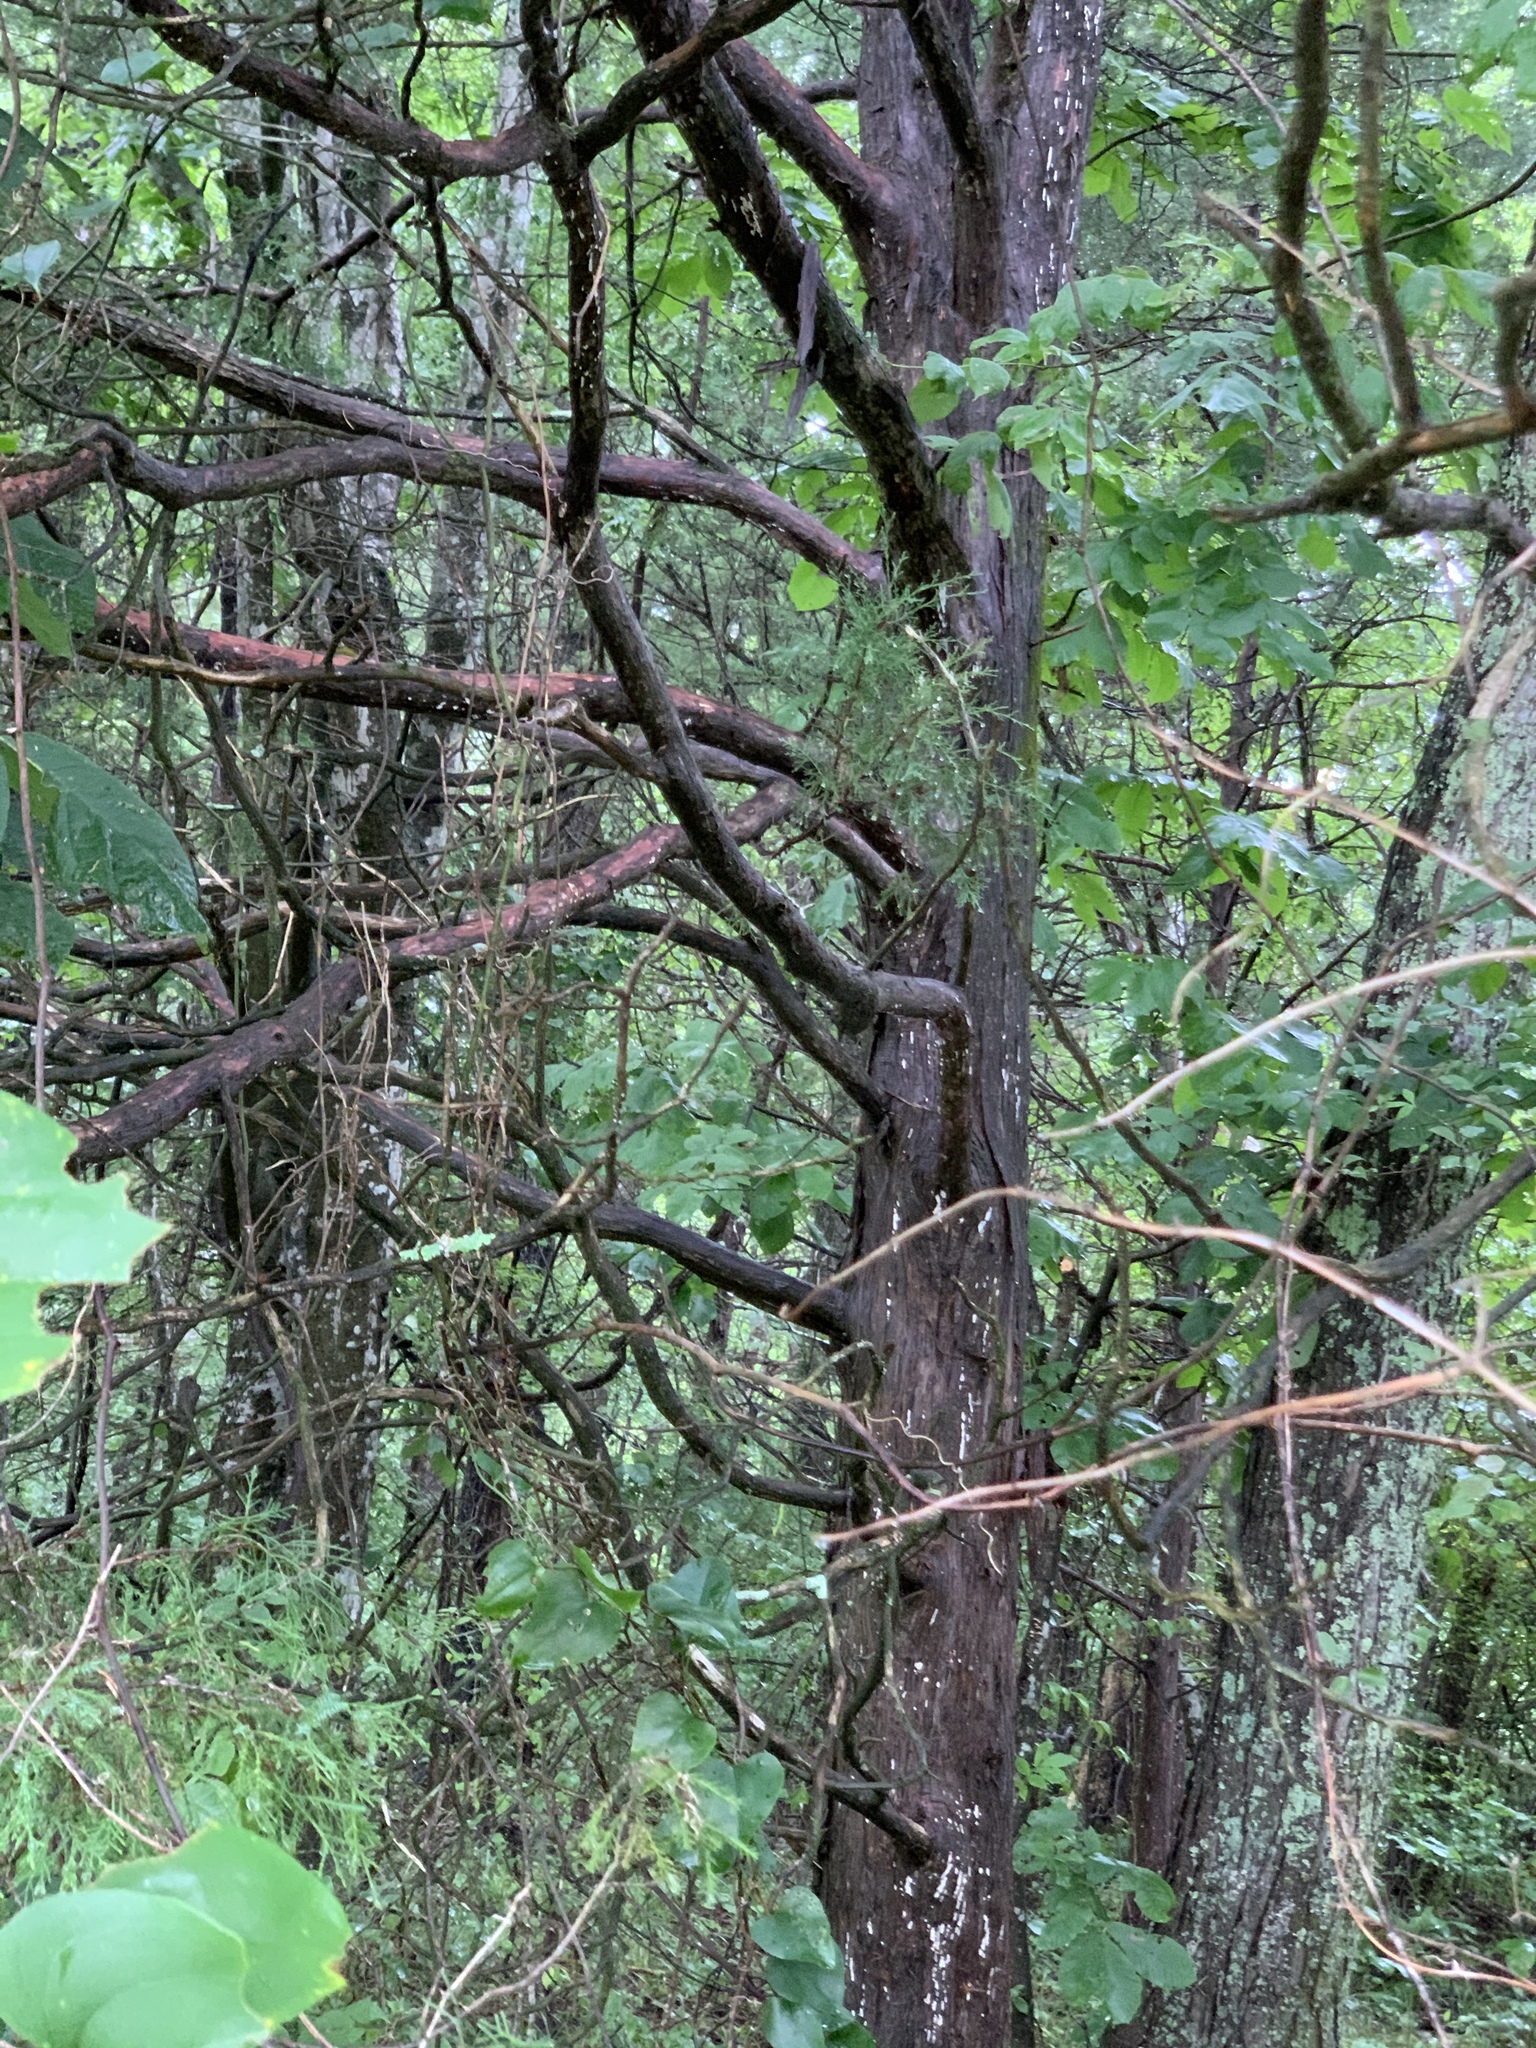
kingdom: Plantae
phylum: Tracheophyta
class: Pinopsida
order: Pinales
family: Cupressaceae
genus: Juniperus
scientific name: Juniperus virginiana
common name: Red juniper
